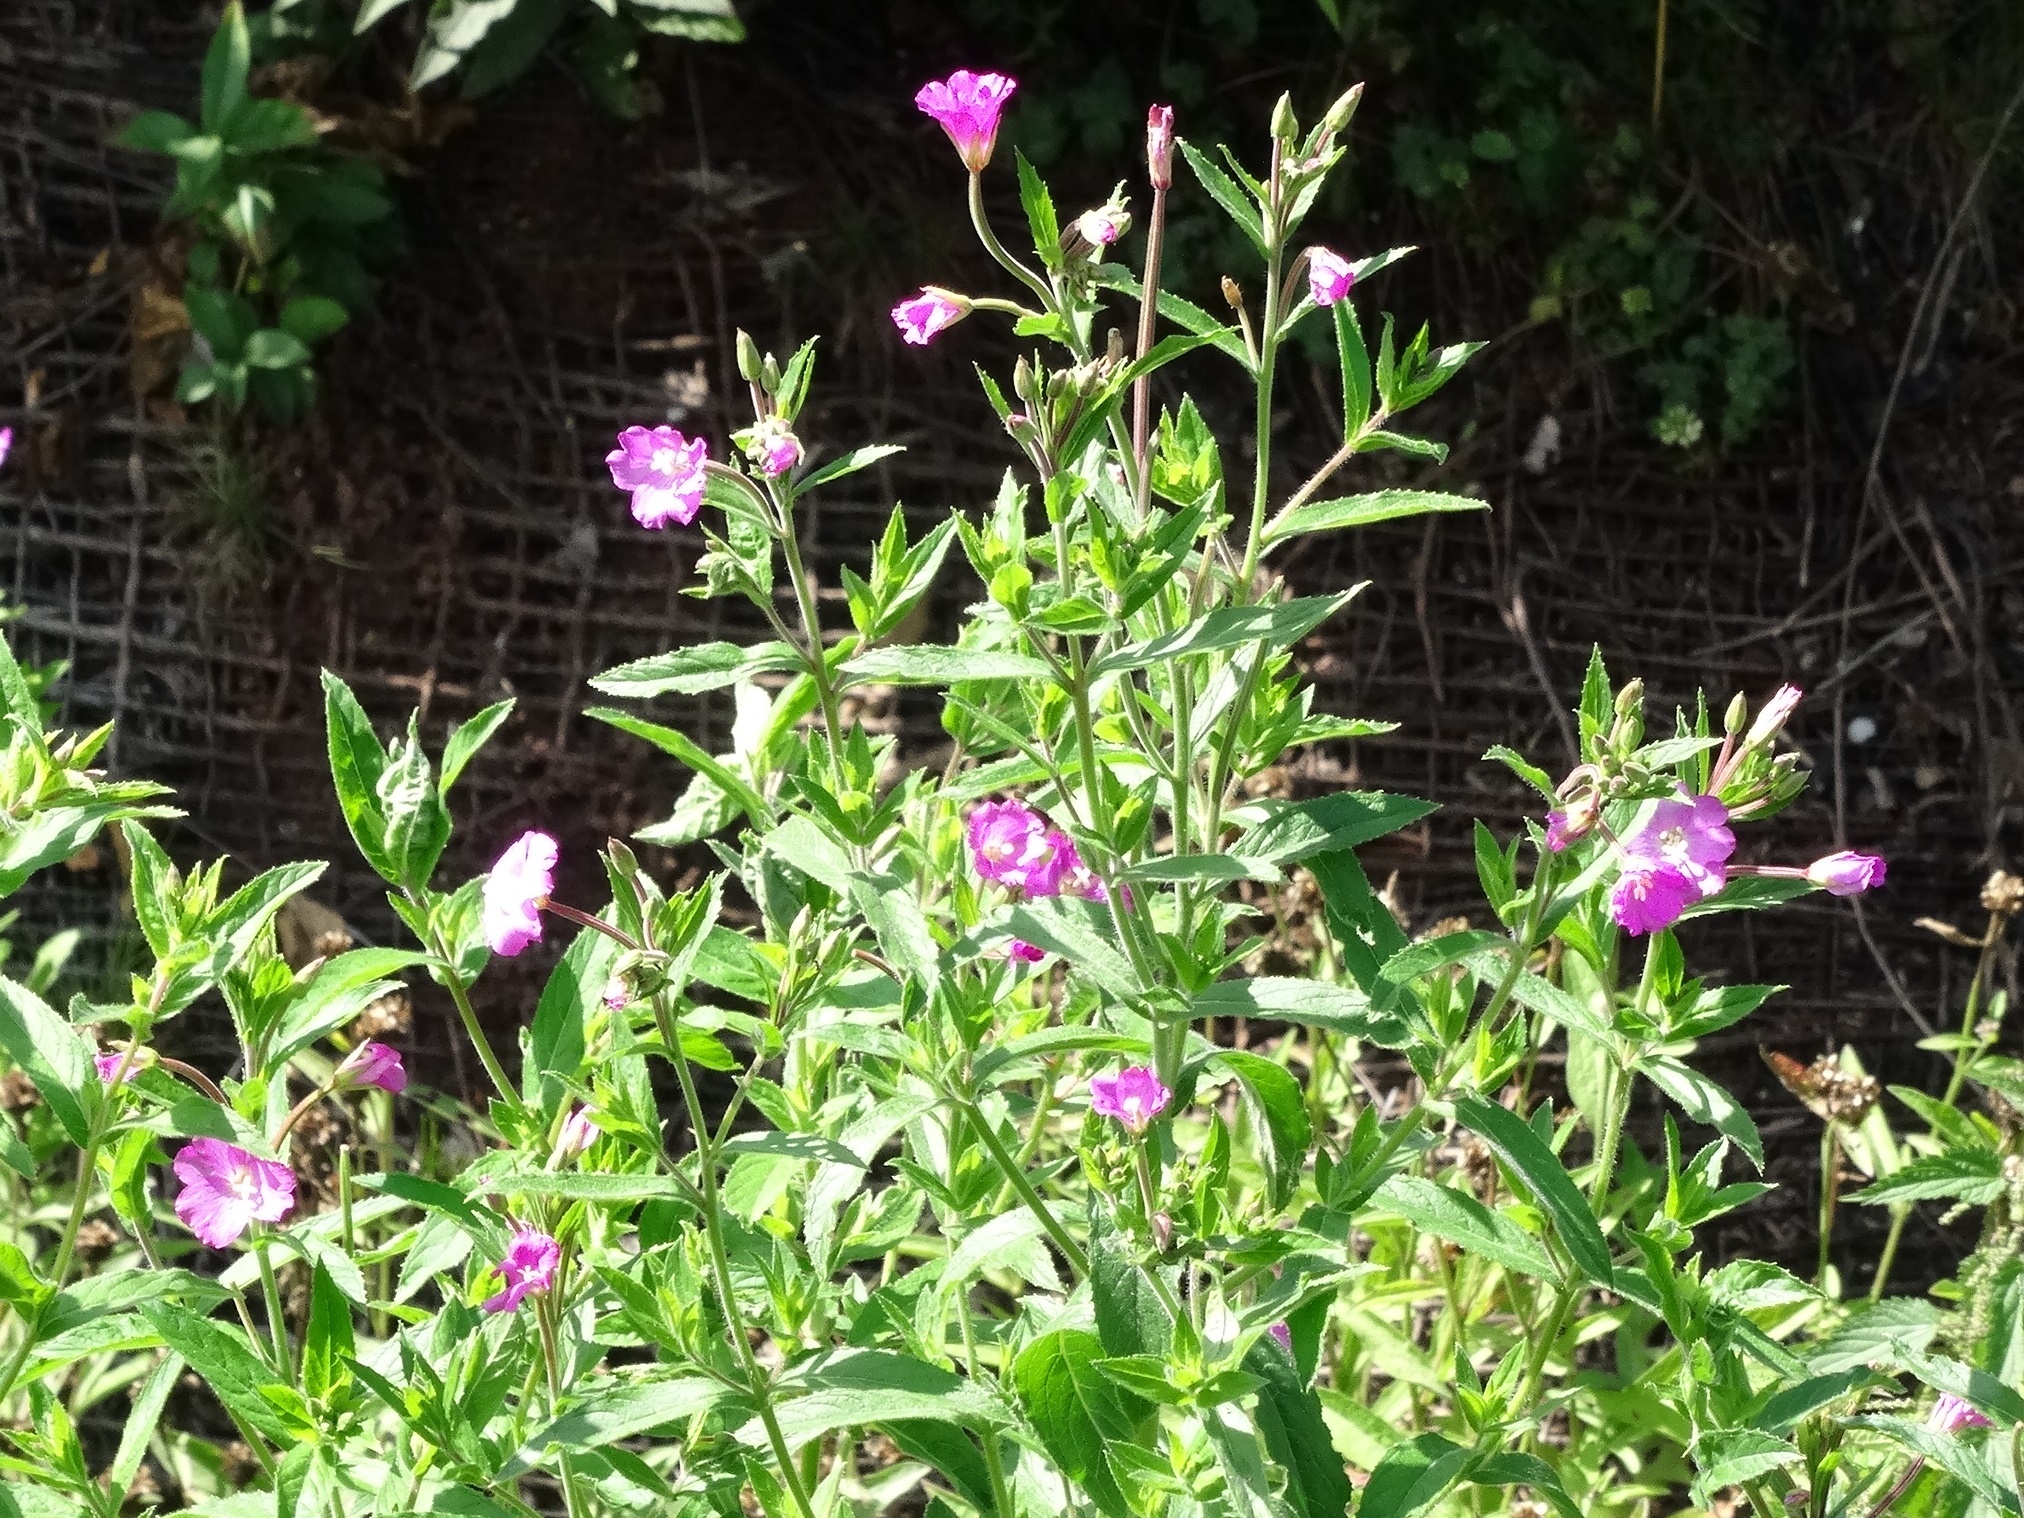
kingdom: Plantae
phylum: Tracheophyta
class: Magnoliopsida
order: Myrtales
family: Onagraceae
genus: Epilobium
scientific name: Epilobium hirsutum
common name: Great willowherb
